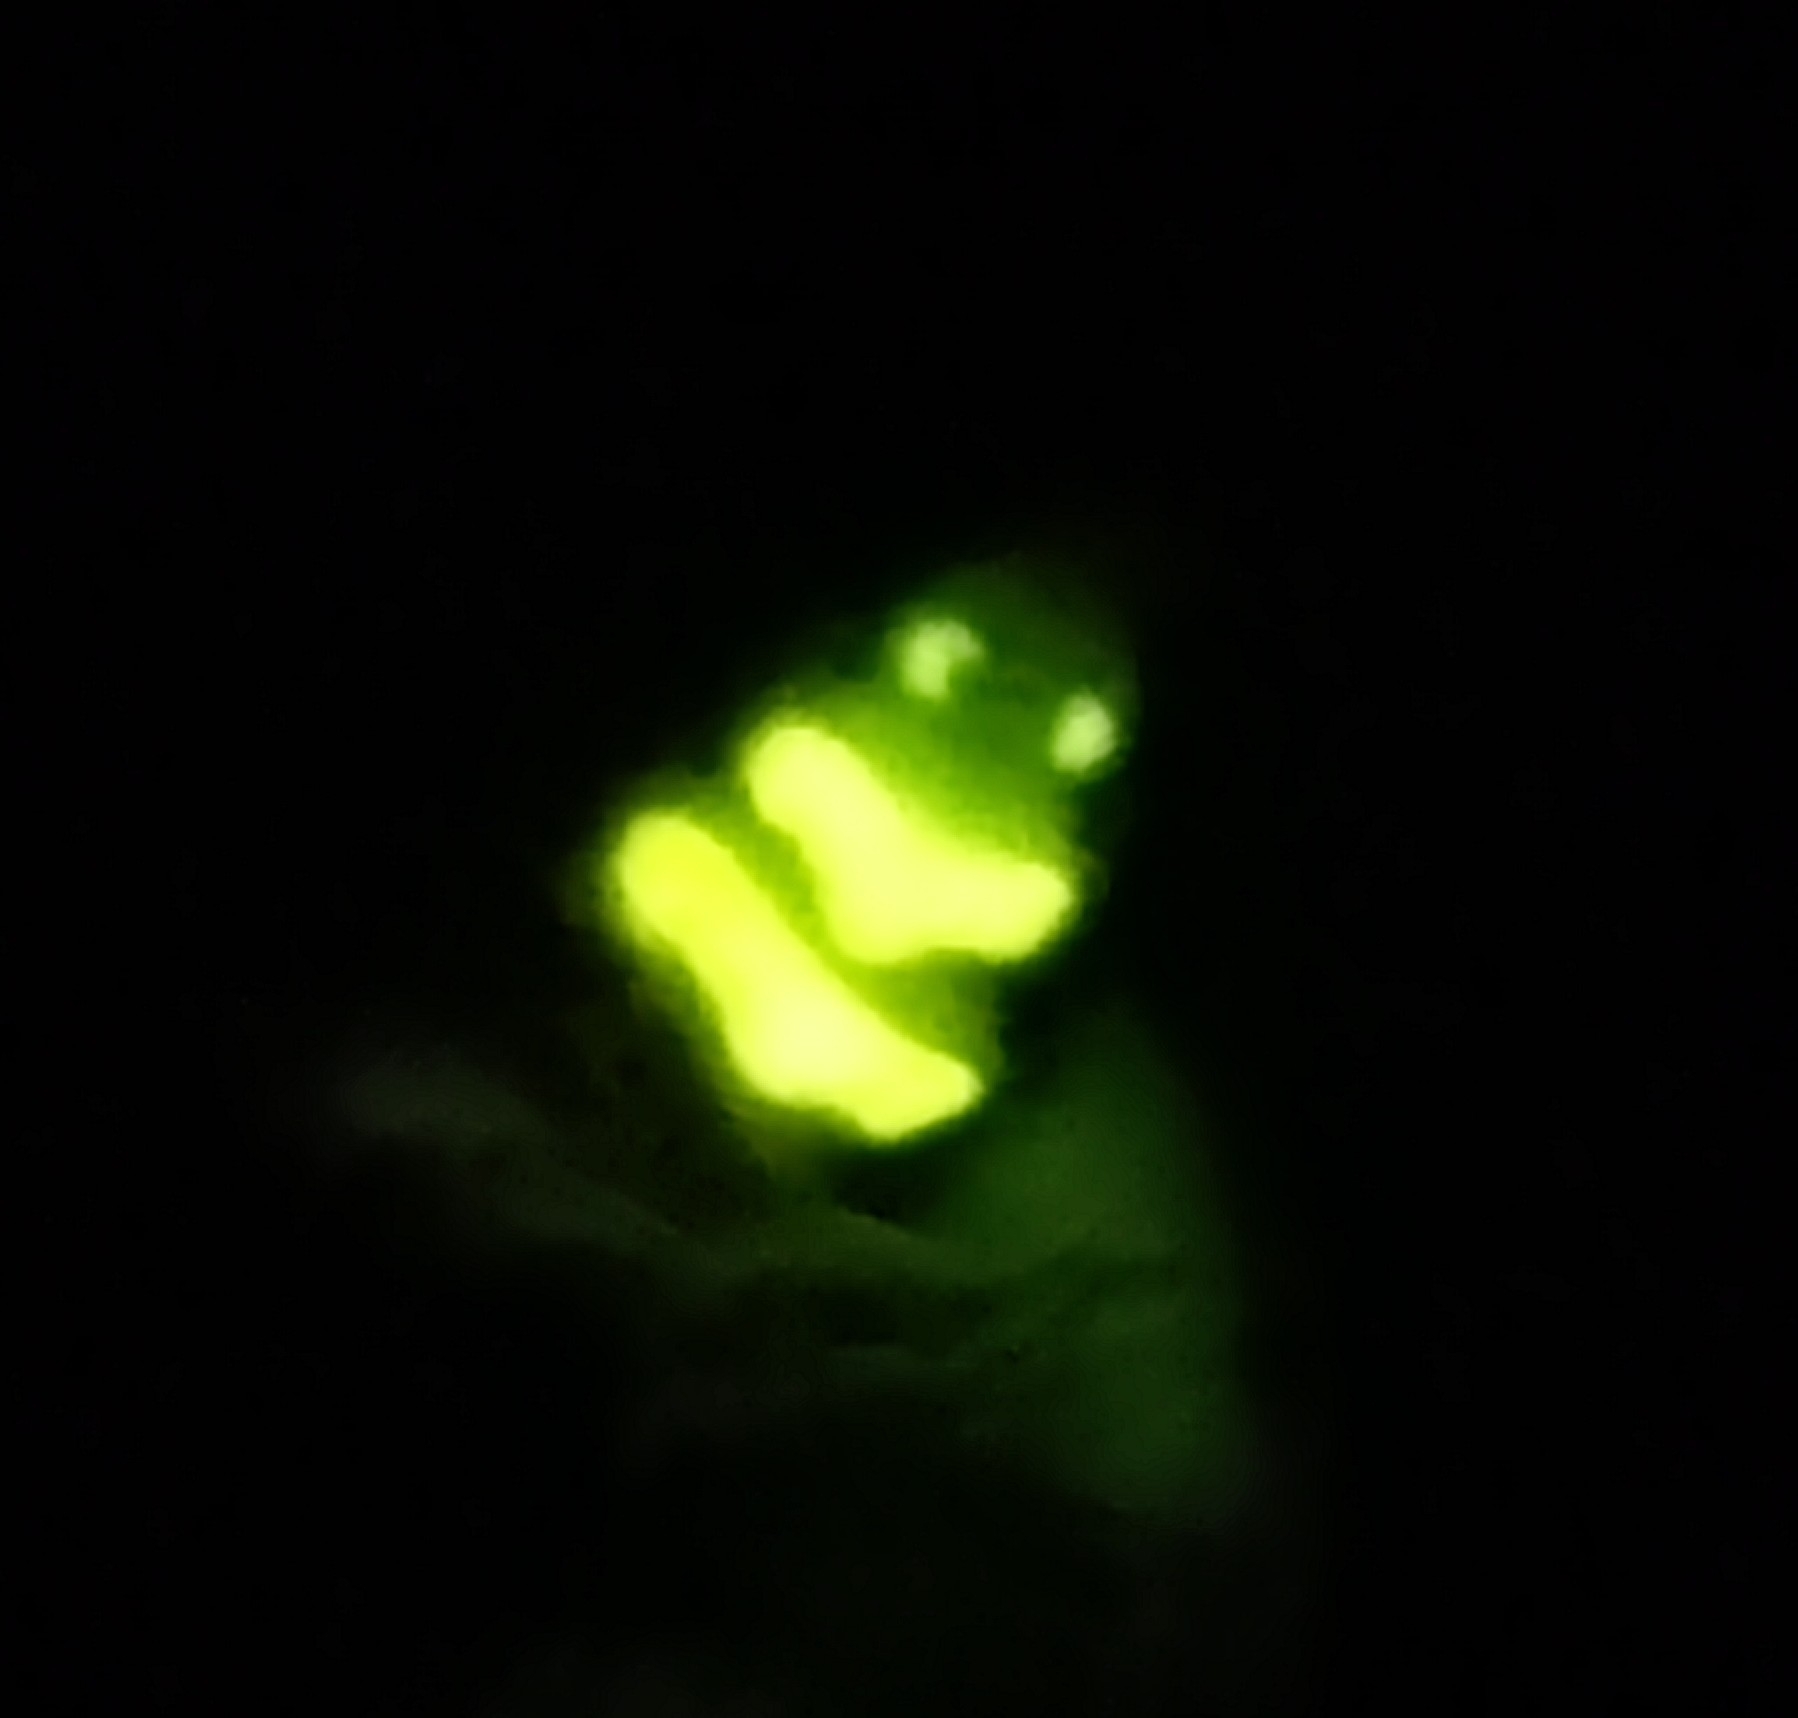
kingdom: Animalia
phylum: Arthropoda
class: Insecta
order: Coleoptera
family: Lampyridae
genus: Lampyris
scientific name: Lampyris noctiluca
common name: Glow-worm
